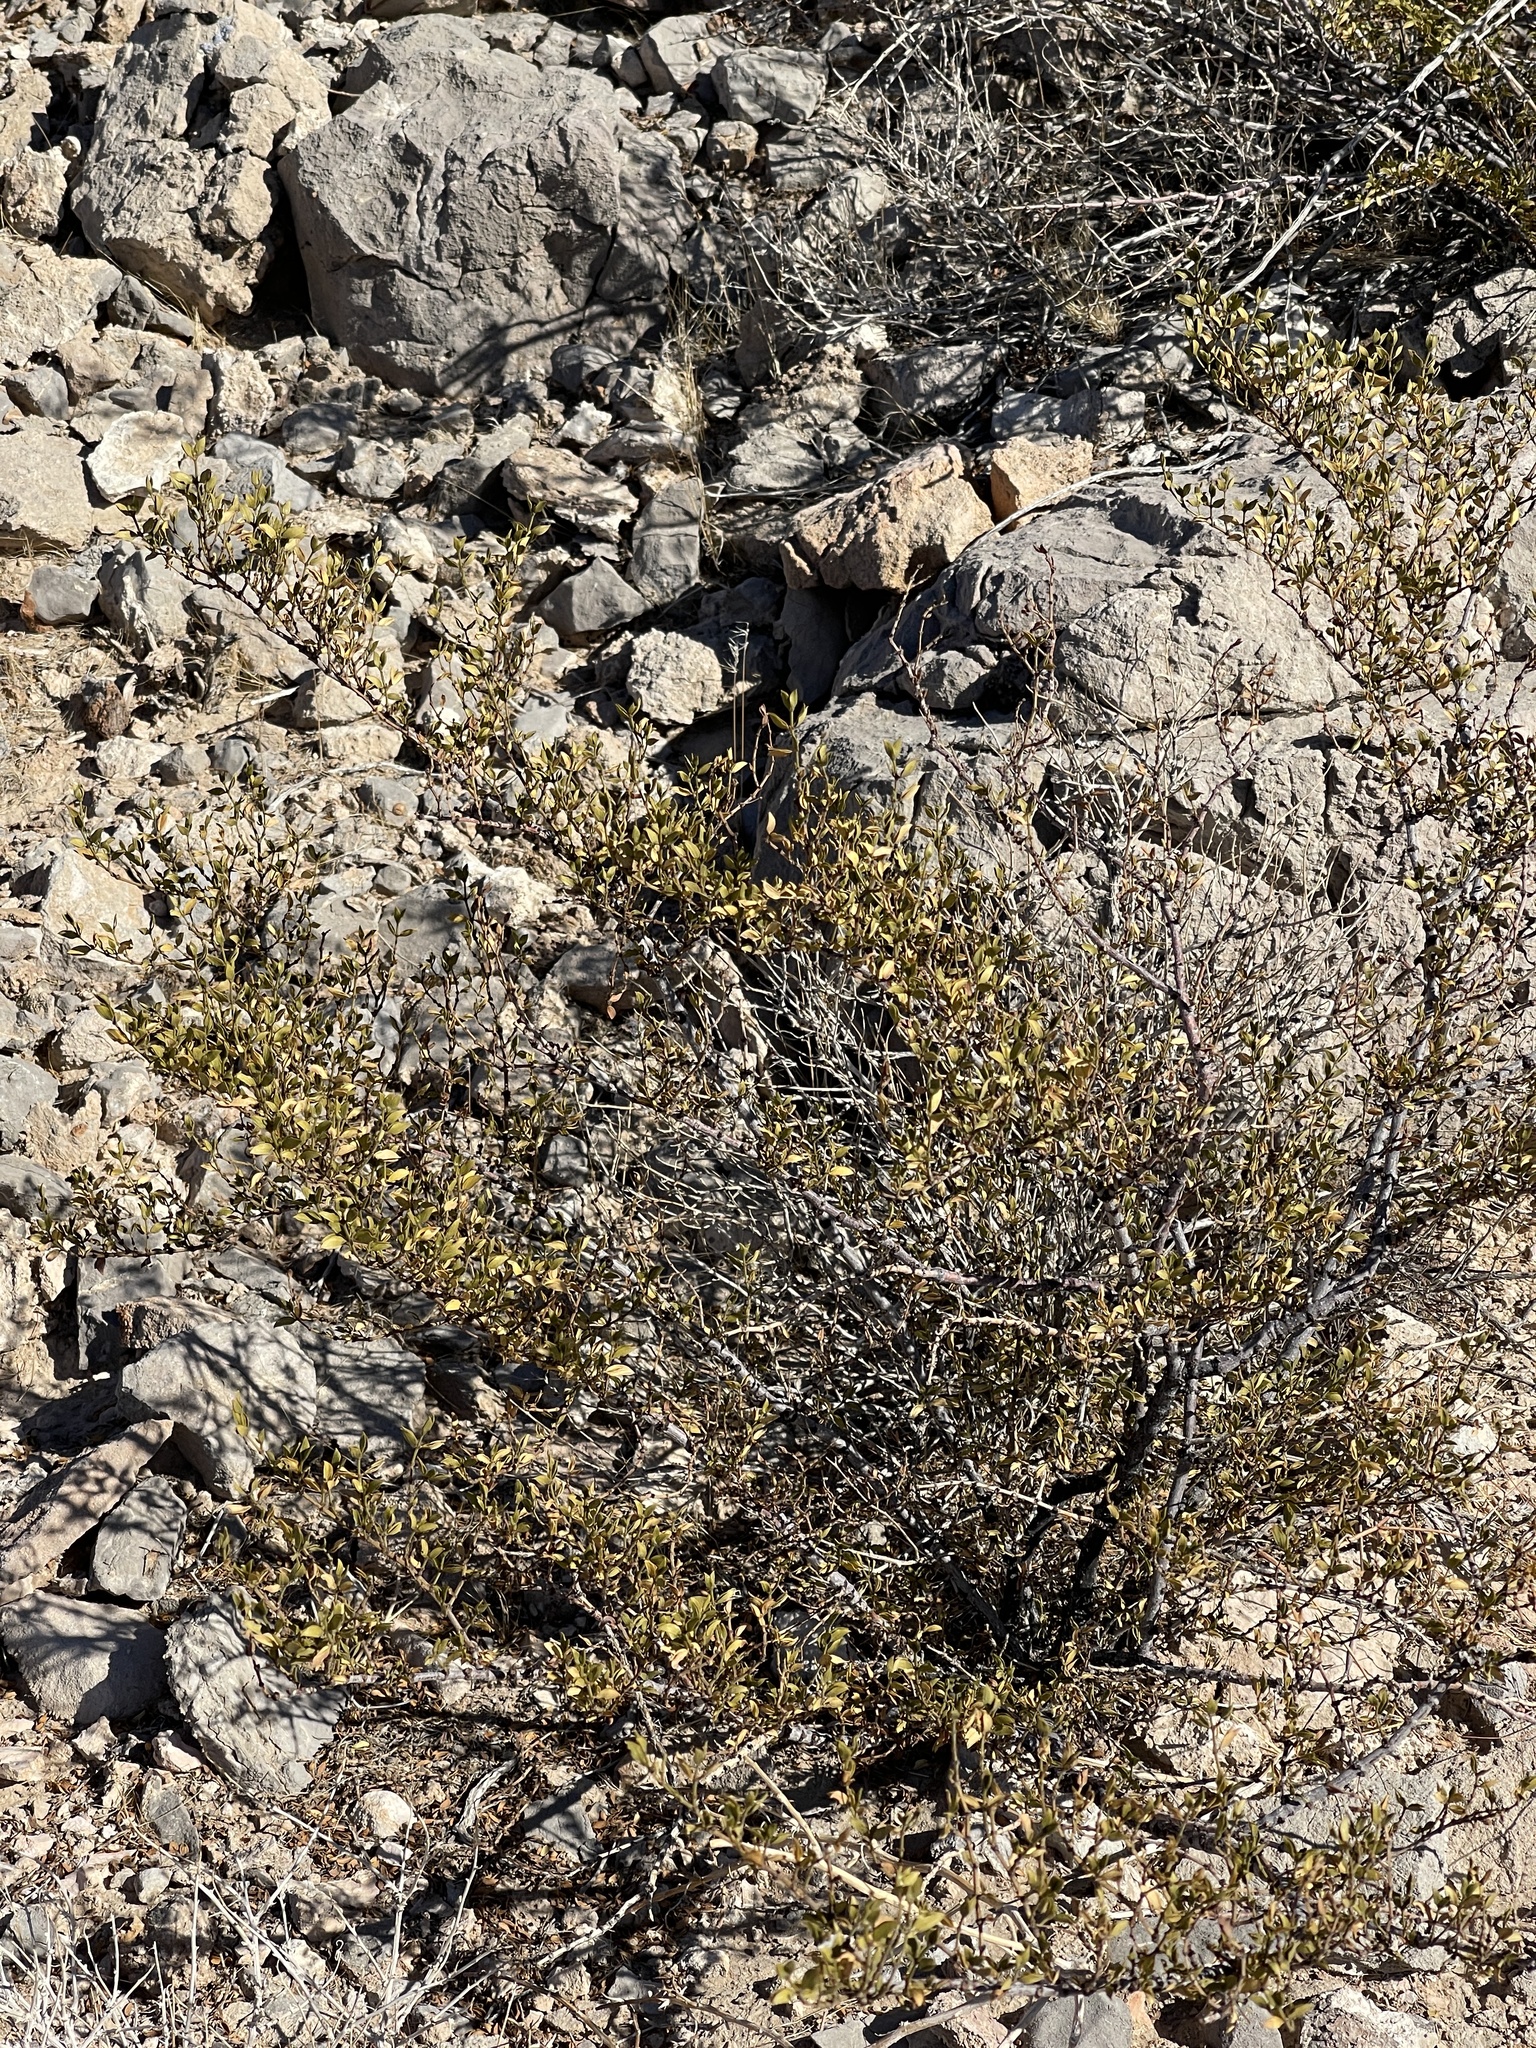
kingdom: Plantae
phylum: Tracheophyta
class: Magnoliopsida
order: Zygophyllales
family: Zygophyllaceae
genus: Larrea
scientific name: Larrea tridentata
